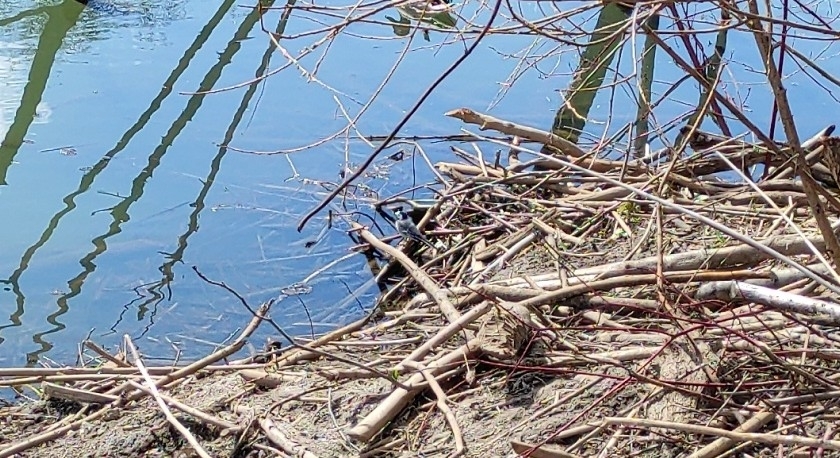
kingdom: Animalia
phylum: Chordata
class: Aves
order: Passeriformes
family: Motacillidae
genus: Motacilla
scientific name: Motacilla alba
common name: White wagtail
